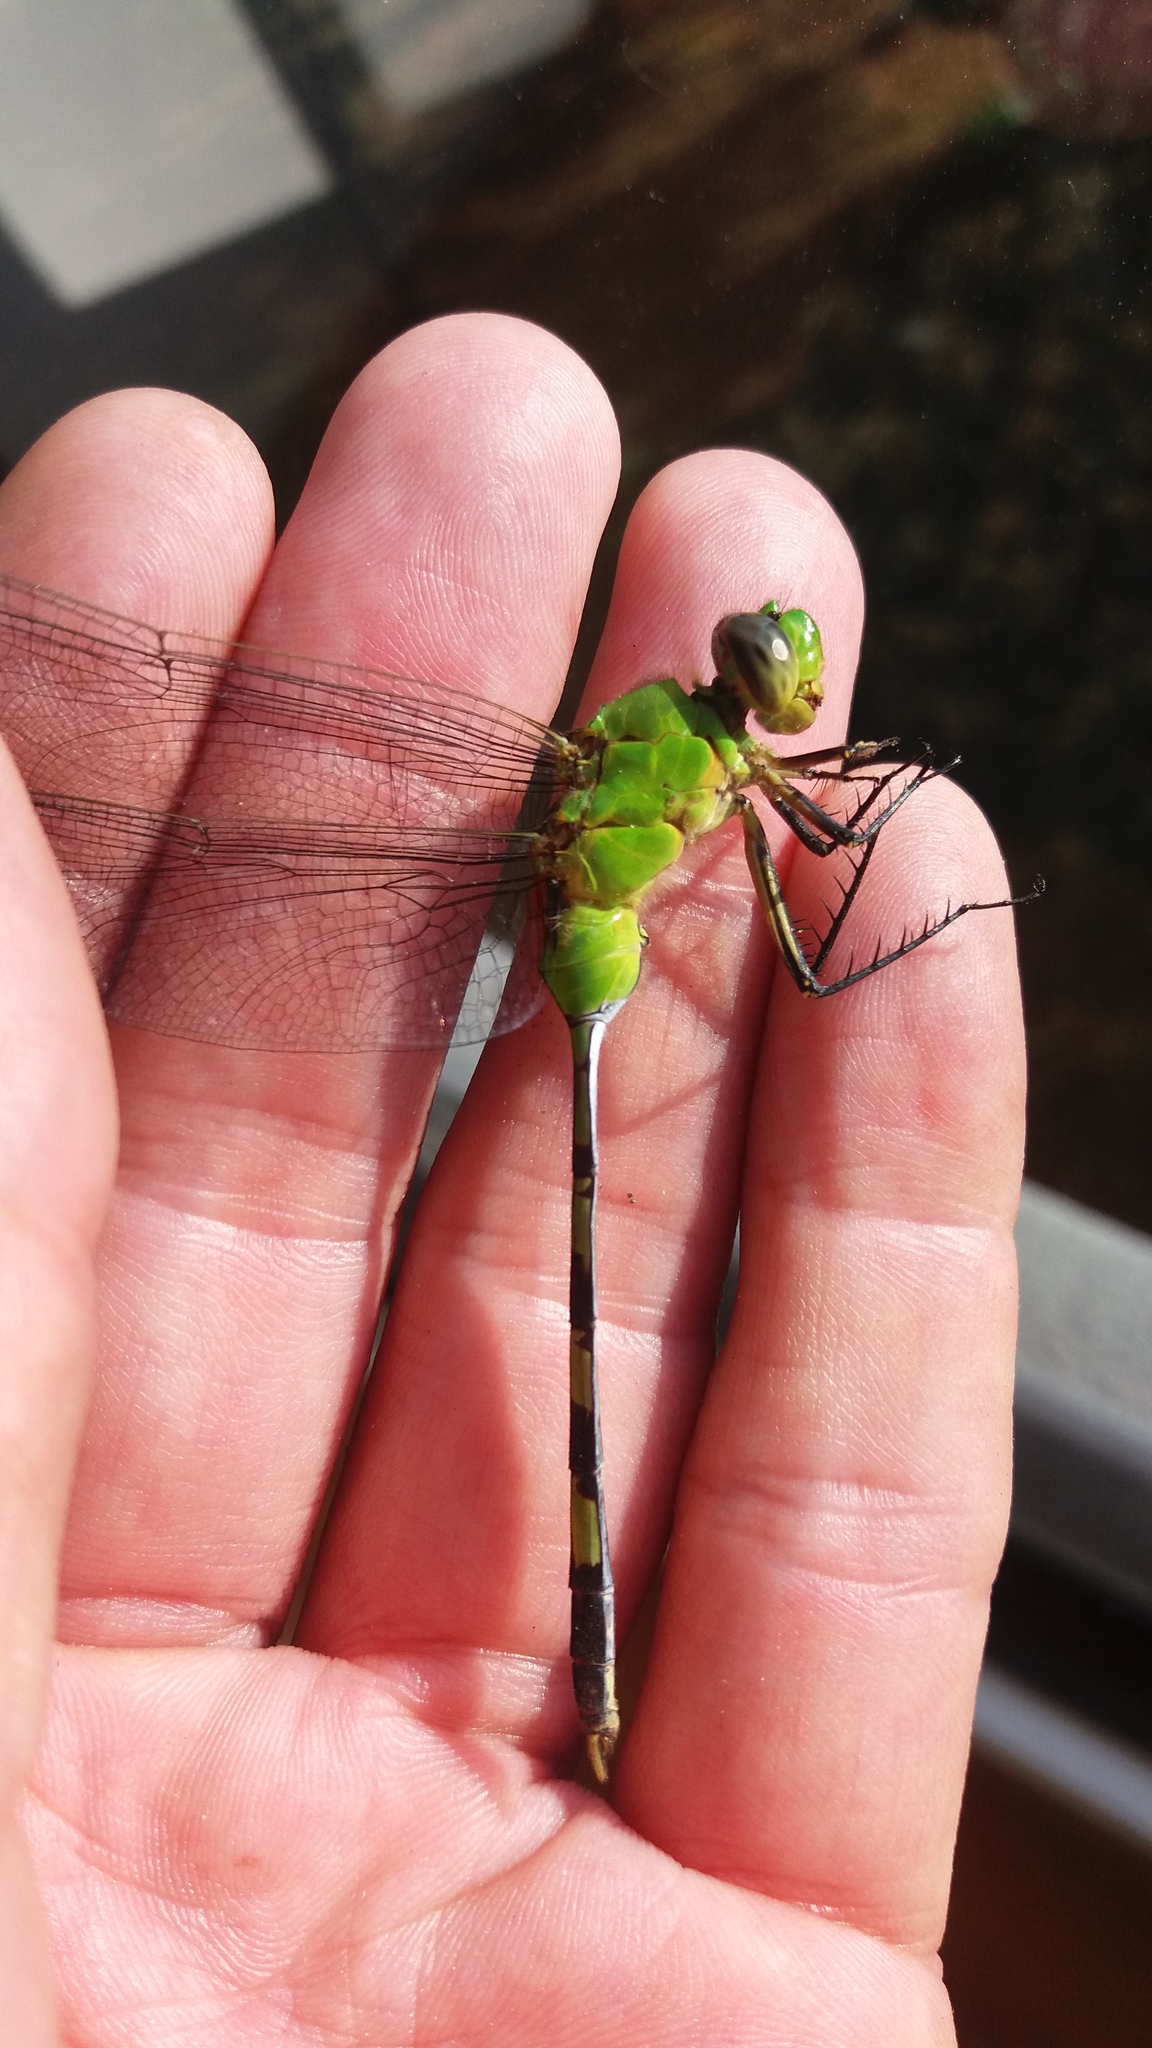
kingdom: Animalia
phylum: Arthropoda
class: Insecta
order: Odonata
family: Libellulidae
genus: Erythemis
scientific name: Erythemis vesiculosa
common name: Great pondhawk
